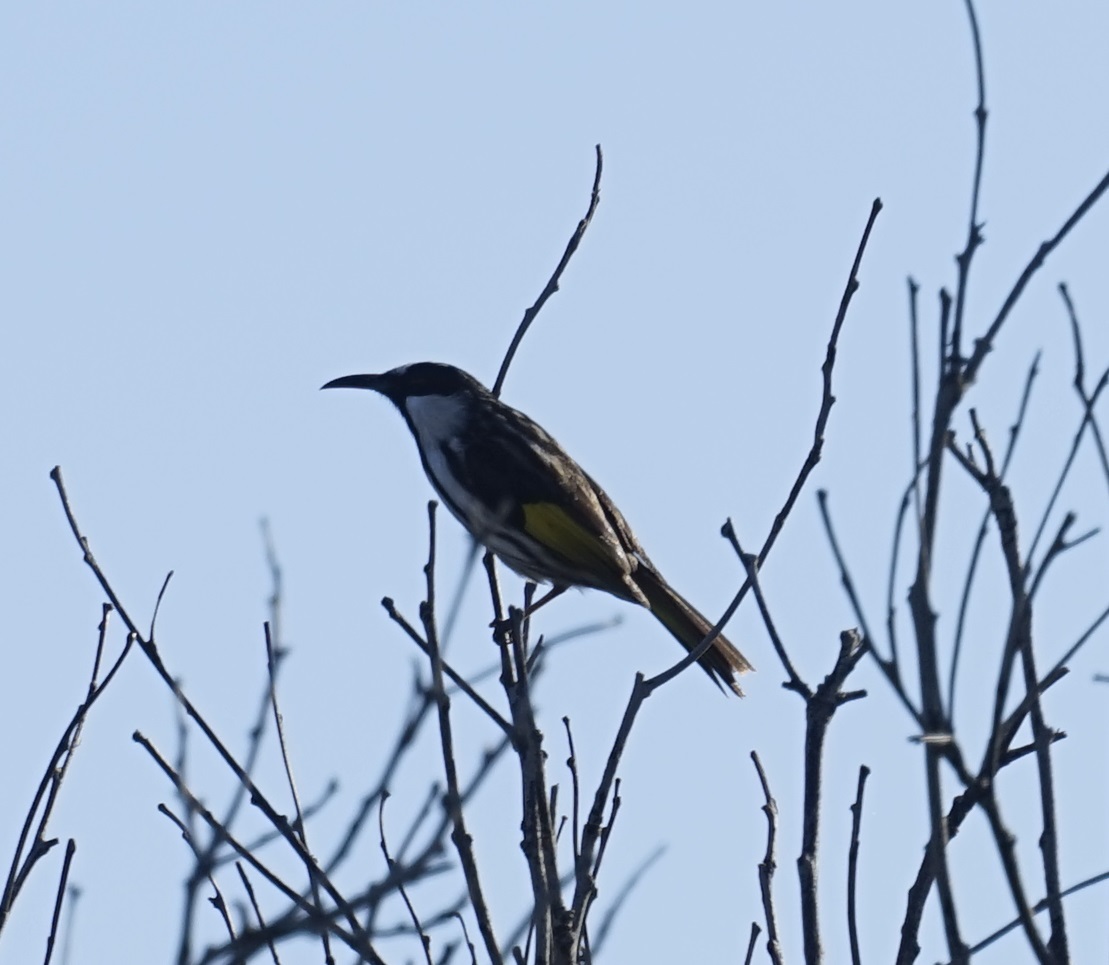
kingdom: Animalia
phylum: Chordata
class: Aves
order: Passeriformes
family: Meliphagidae
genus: Phylidonyris
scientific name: Phylidonyris niger
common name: White-cheeked honeyeater
